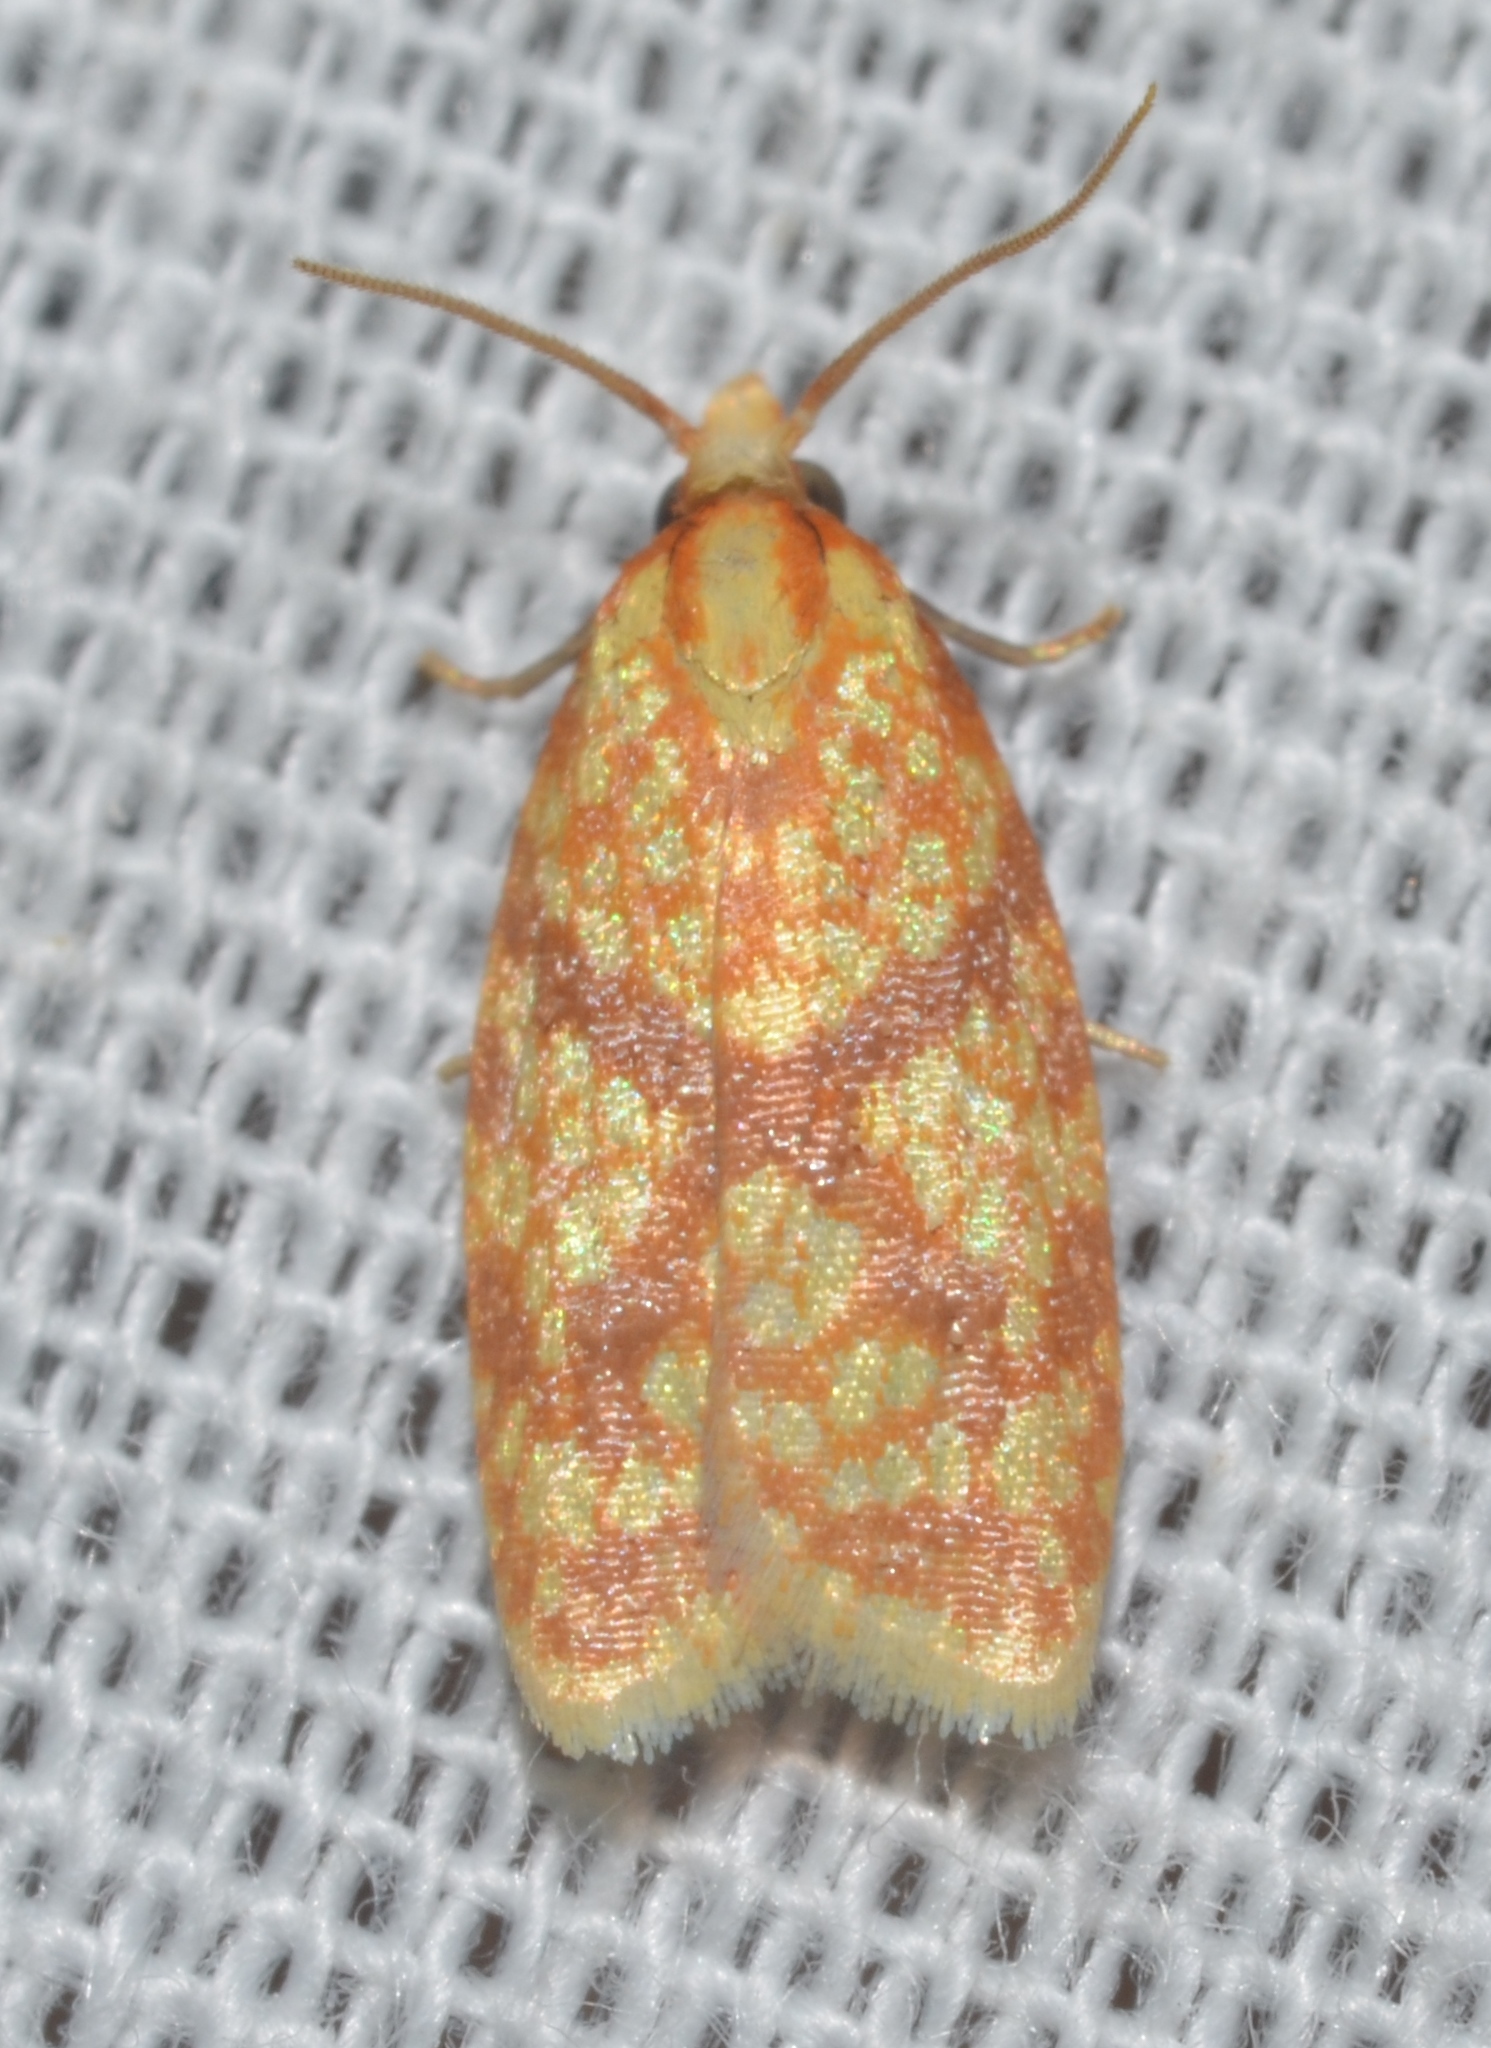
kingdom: Animalia
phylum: Arthropoda
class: Insecta
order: Lepidoptera
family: Tortricidae
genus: Sparganothis
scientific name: Sparganothis sulfureana
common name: Sparganothis fruitworm moth
